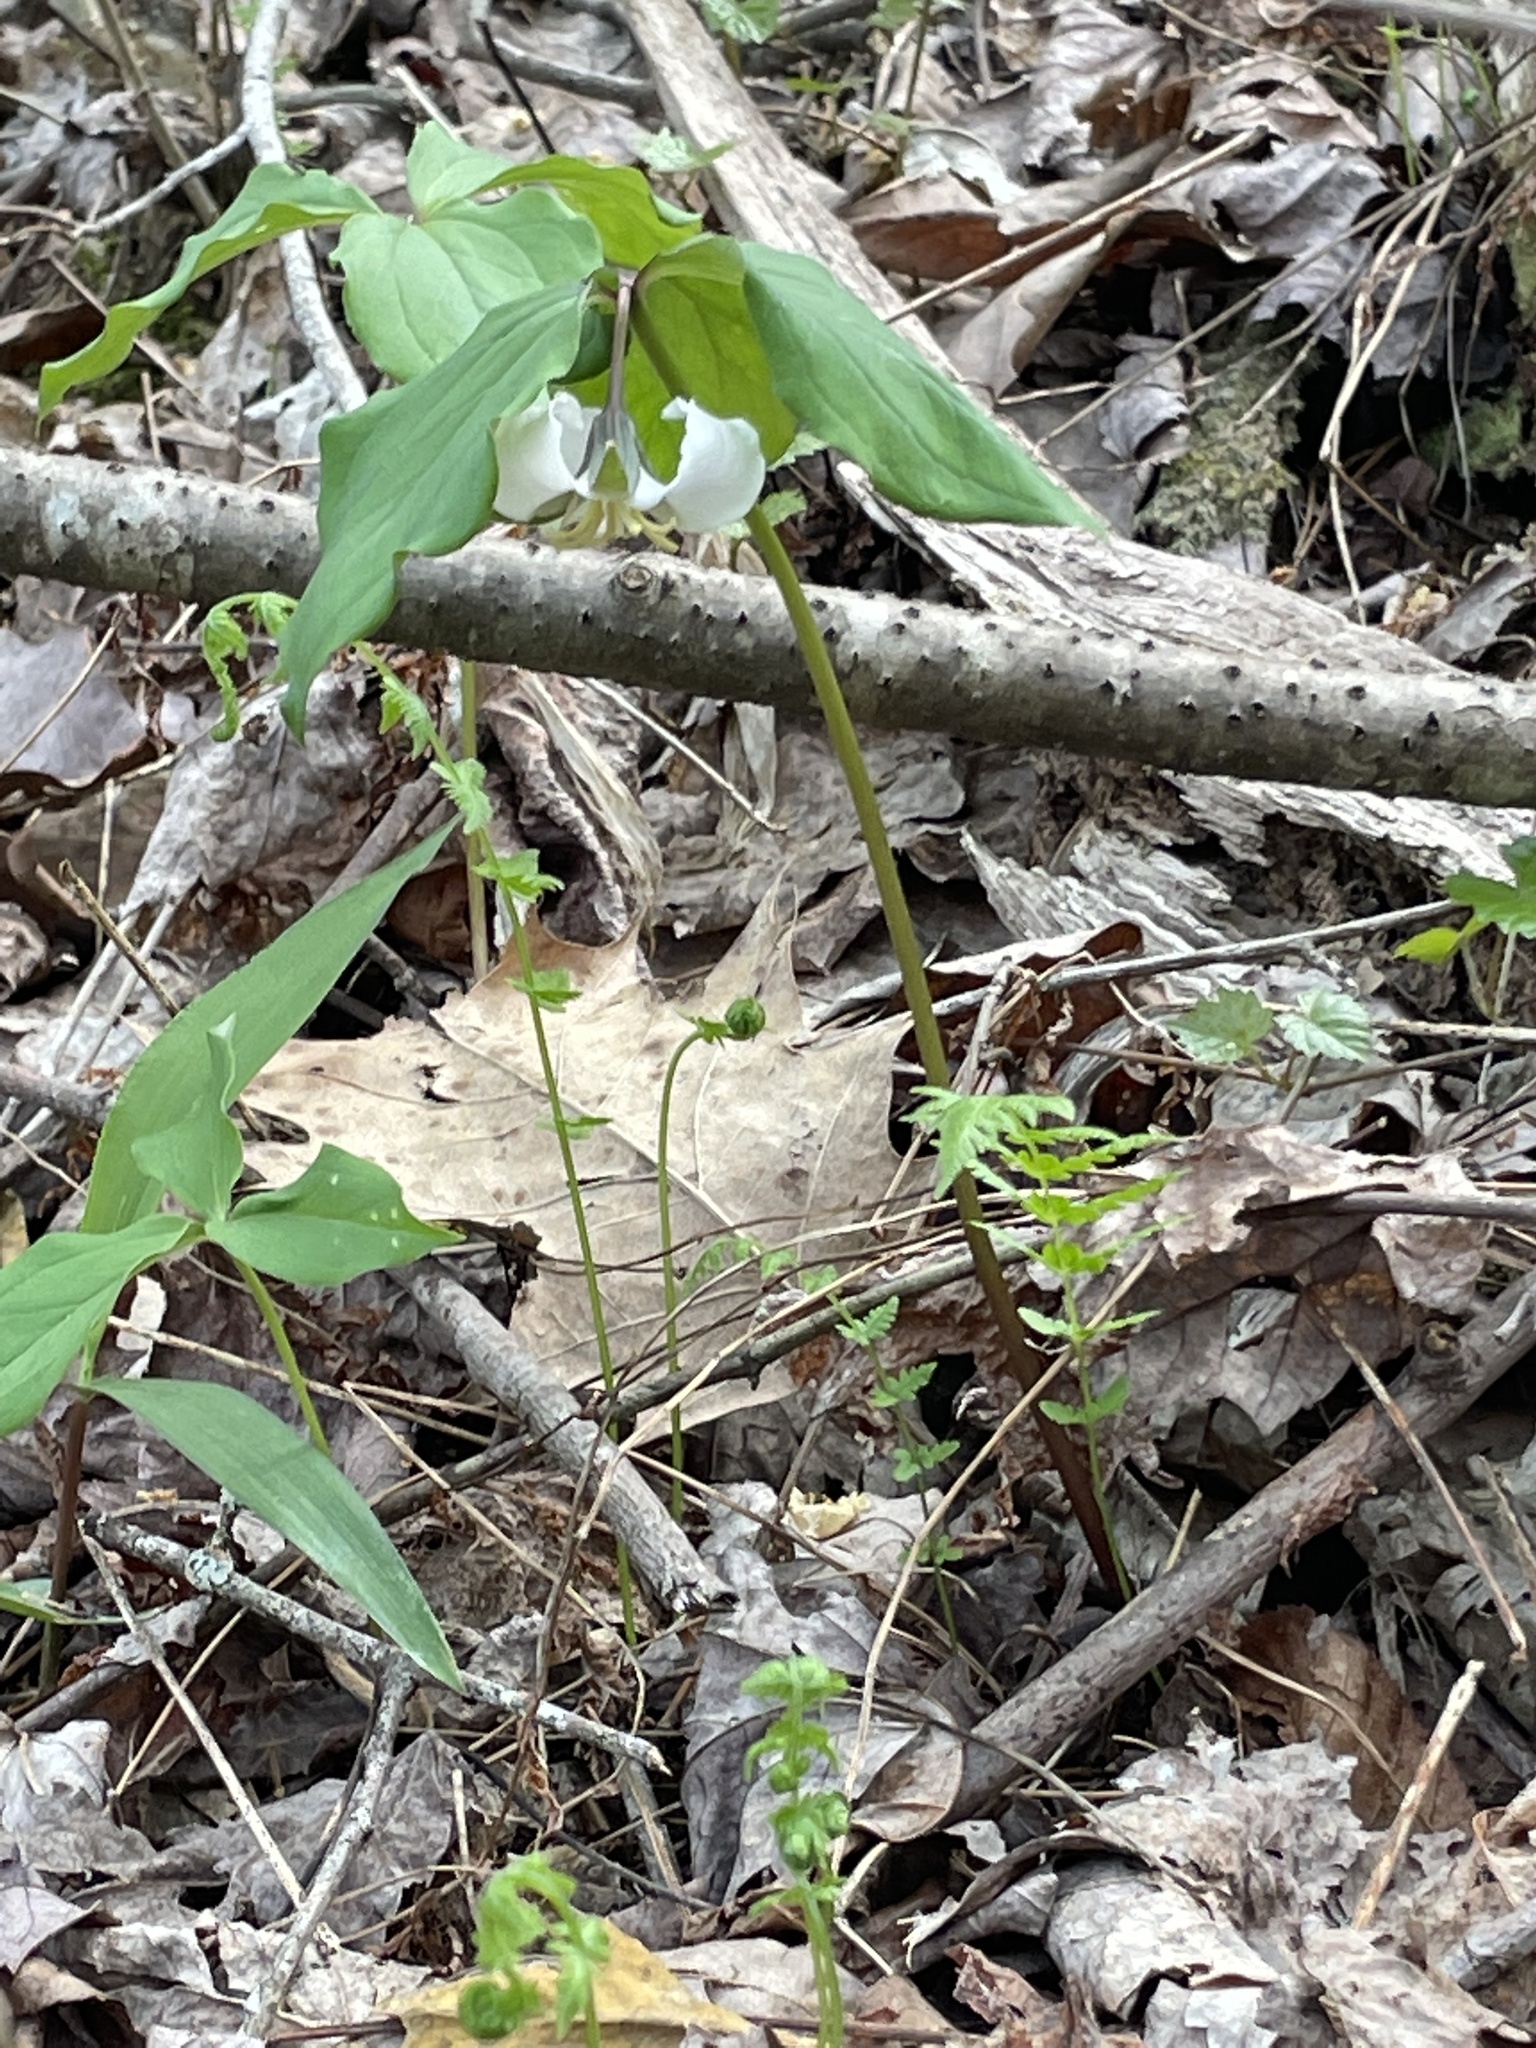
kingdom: Plantae
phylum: Tracheophyta
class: Liliopsida
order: Liliales
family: Melanthiaceae
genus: Trillium
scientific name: Trillium catesbaei
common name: Bashful trillium
